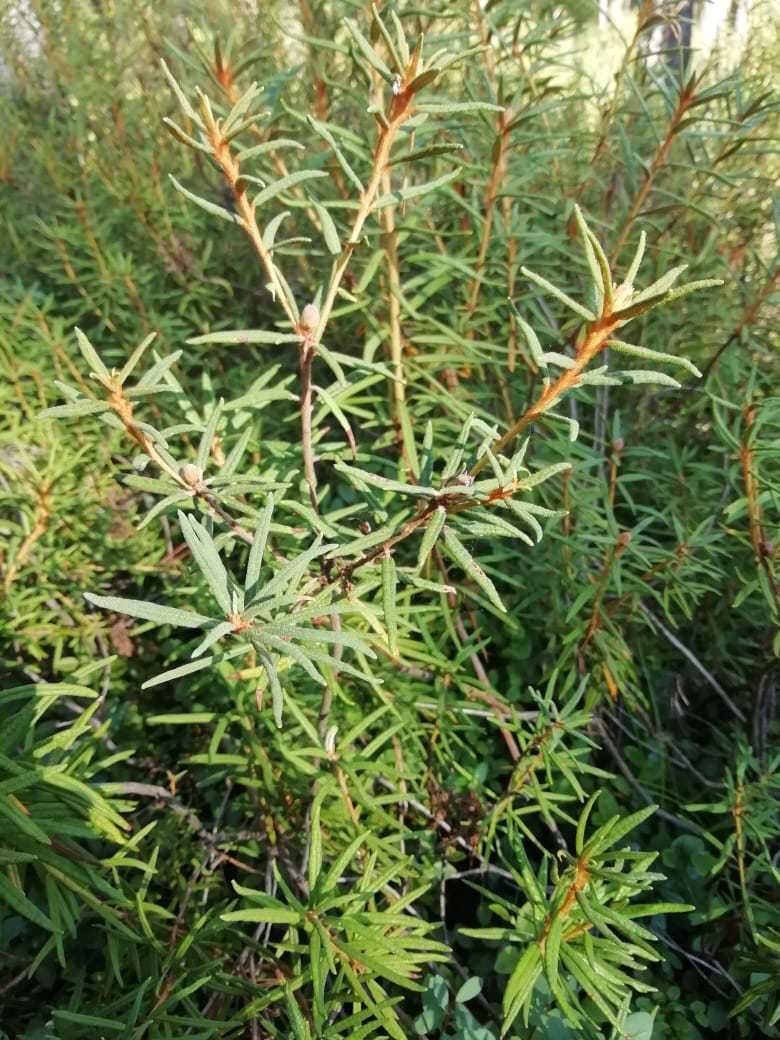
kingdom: Plantae
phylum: Tracheophyta
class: Magnoliopsida
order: Ericales
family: Ericaceae
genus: Rhododendron
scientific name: Rhododendron tomentosum
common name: Marsh labrador tea
